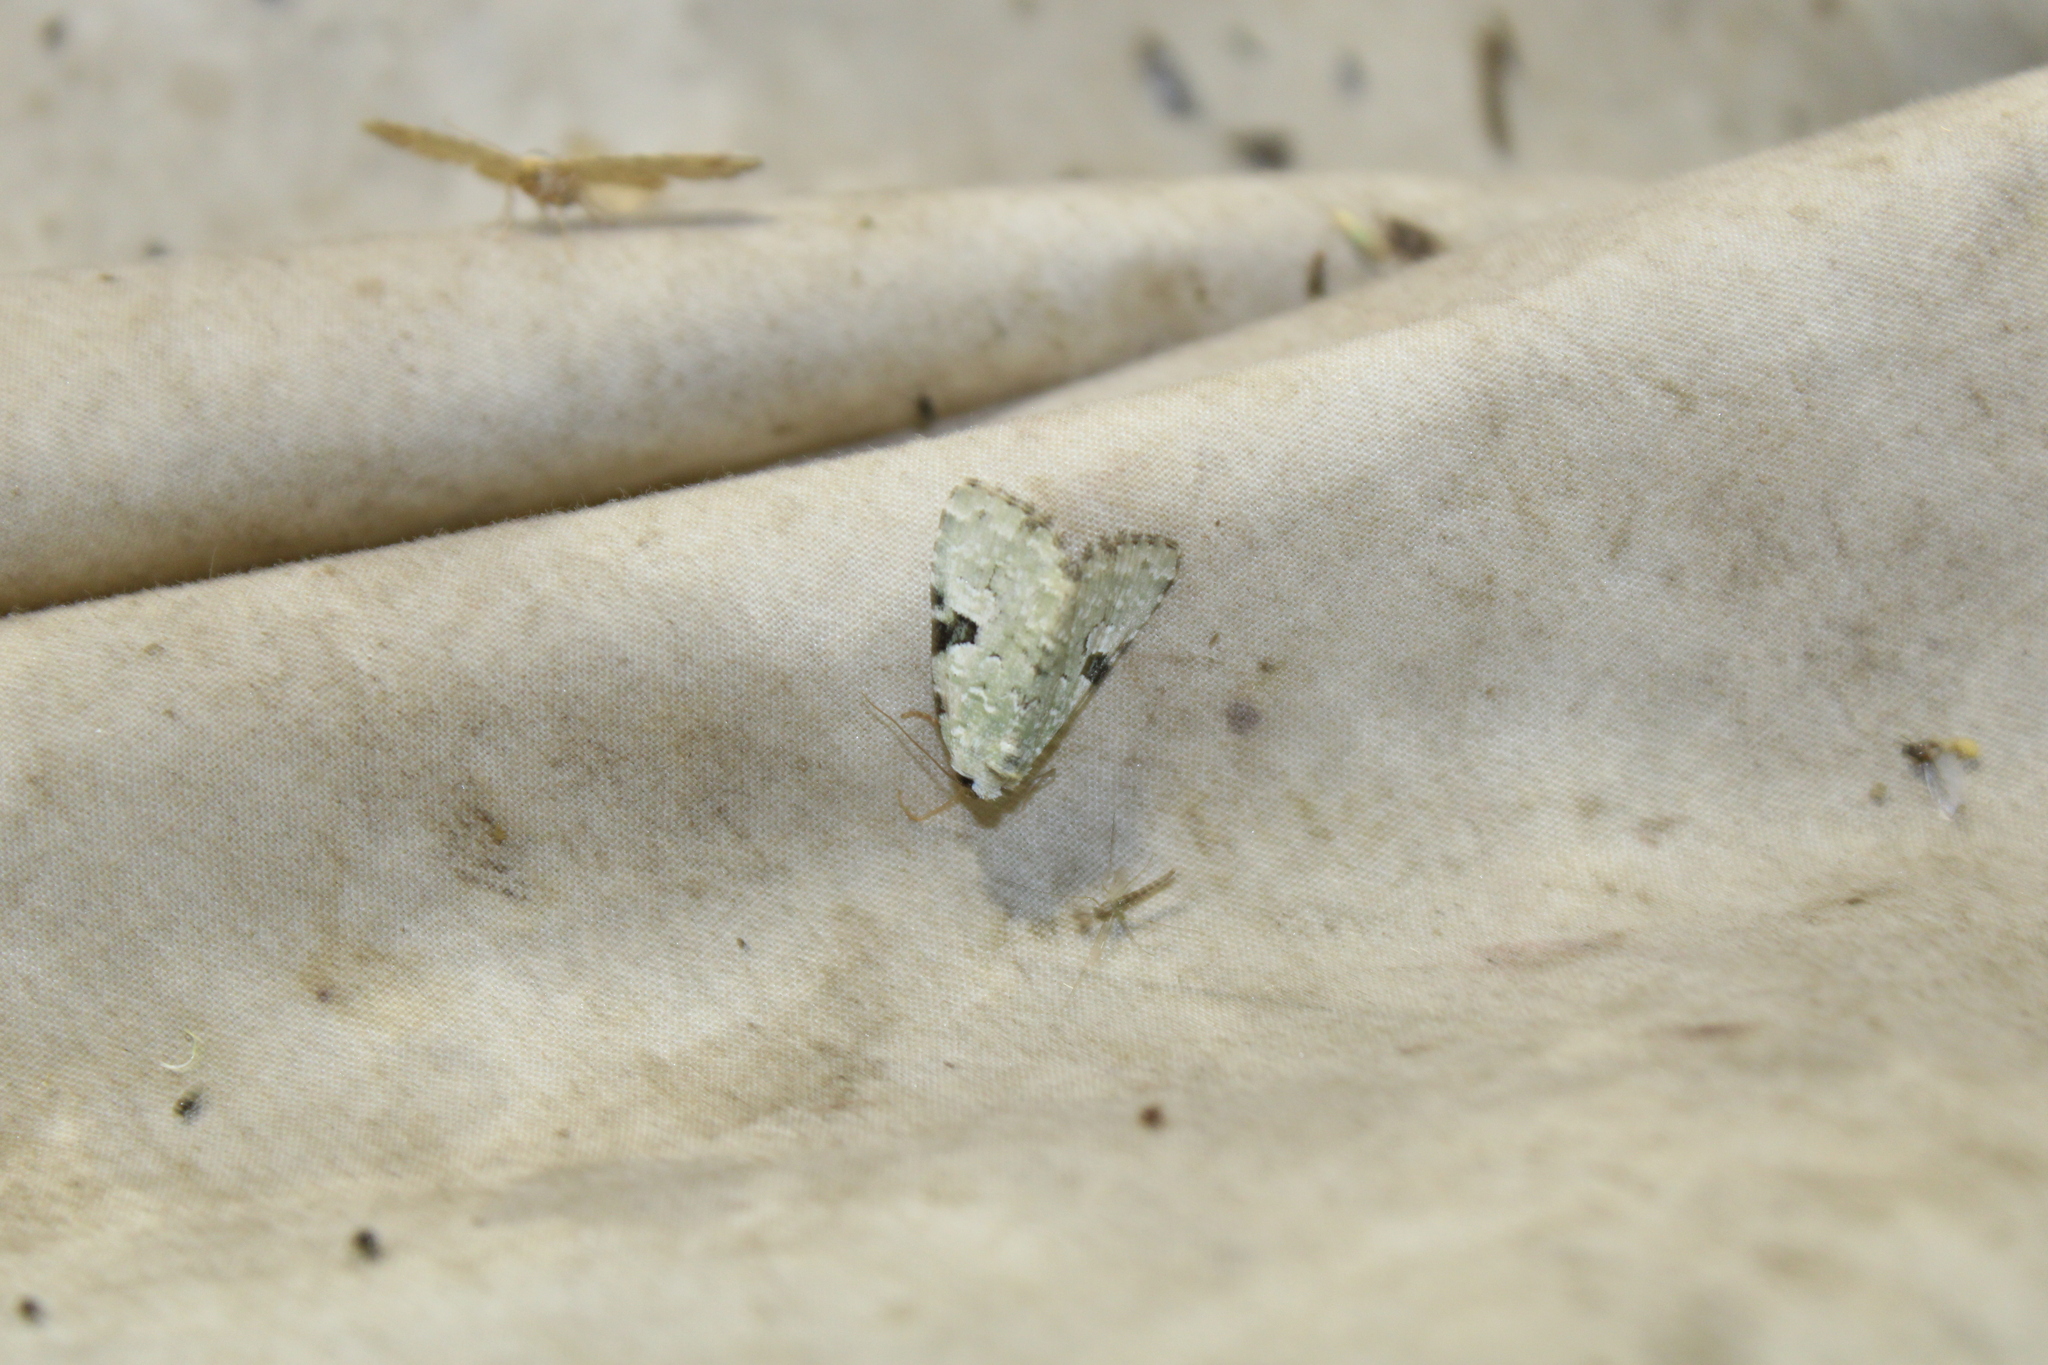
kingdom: Animalia
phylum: Arthropoda
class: Insecta
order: Lepidoptera
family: Noctuidae
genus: Leuconycta
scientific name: Leuconycta diphteroides
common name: Green leuconycta moth
